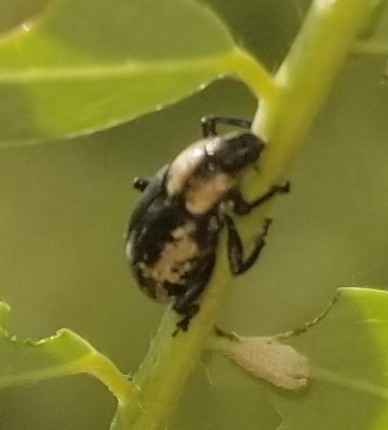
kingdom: Animalia
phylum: Arthropoda
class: Insecta
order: Coleoptera
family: Curculionidae
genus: Eudiagogus
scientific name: Eudiagogus rosenschoeldi
